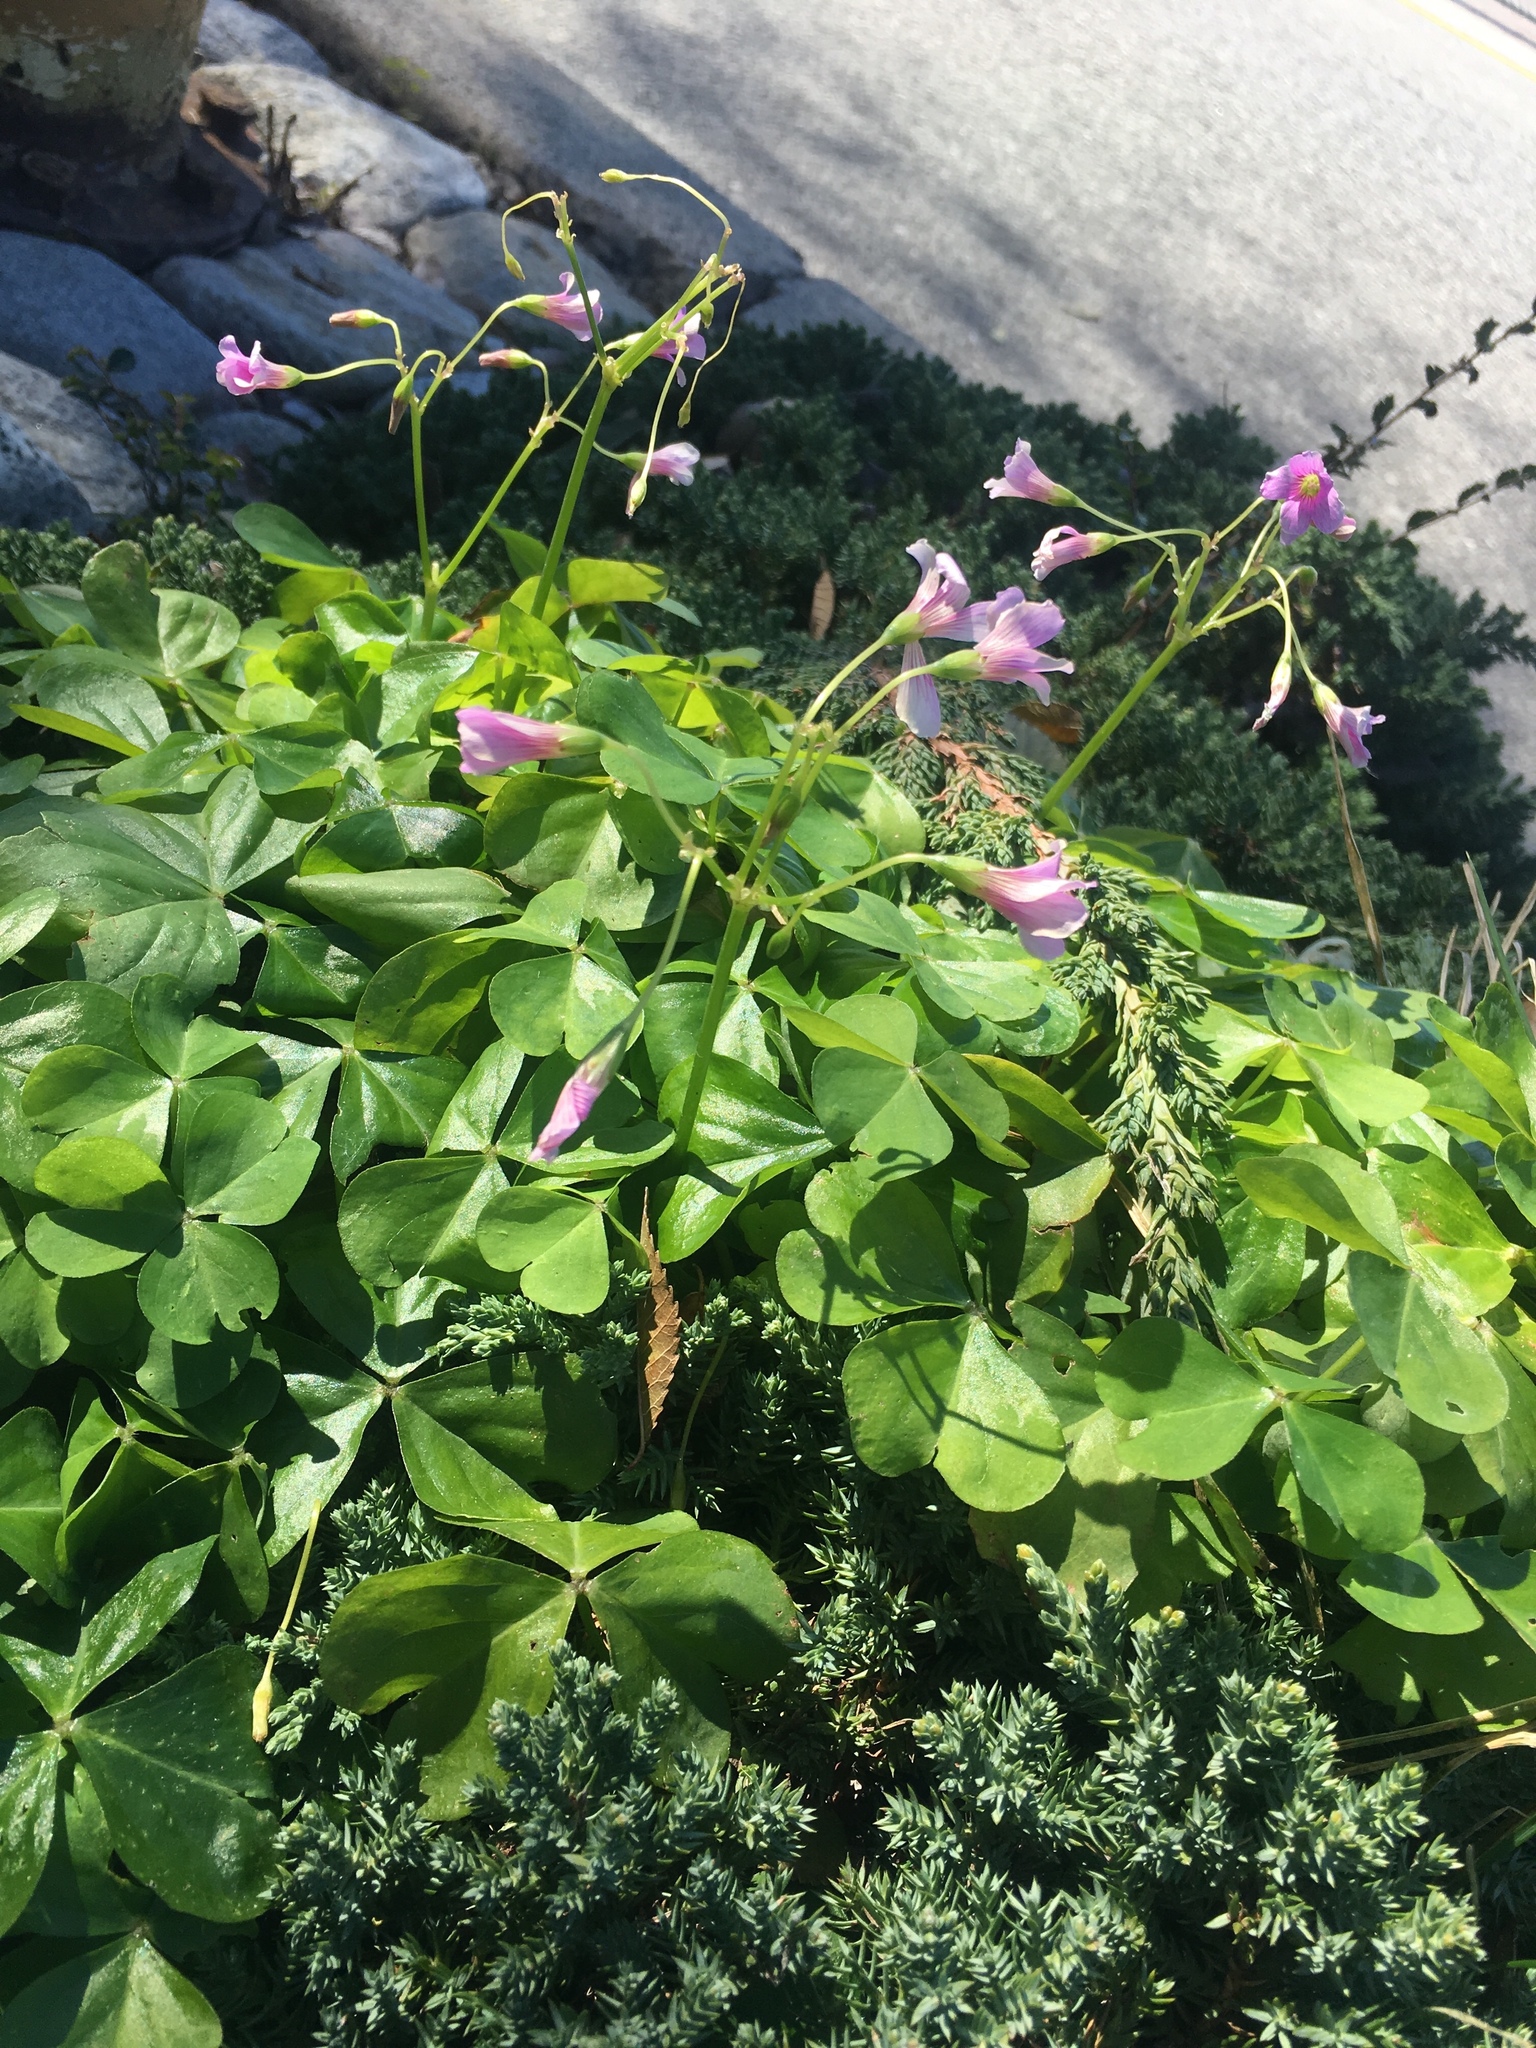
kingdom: Plantae
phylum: Tracheophyta
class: Magnoliopsida
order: Oxalidales
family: Oxalidaceae
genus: Oxalis
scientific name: Oxalis debilis
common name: Large-flowered pink-sorrel
